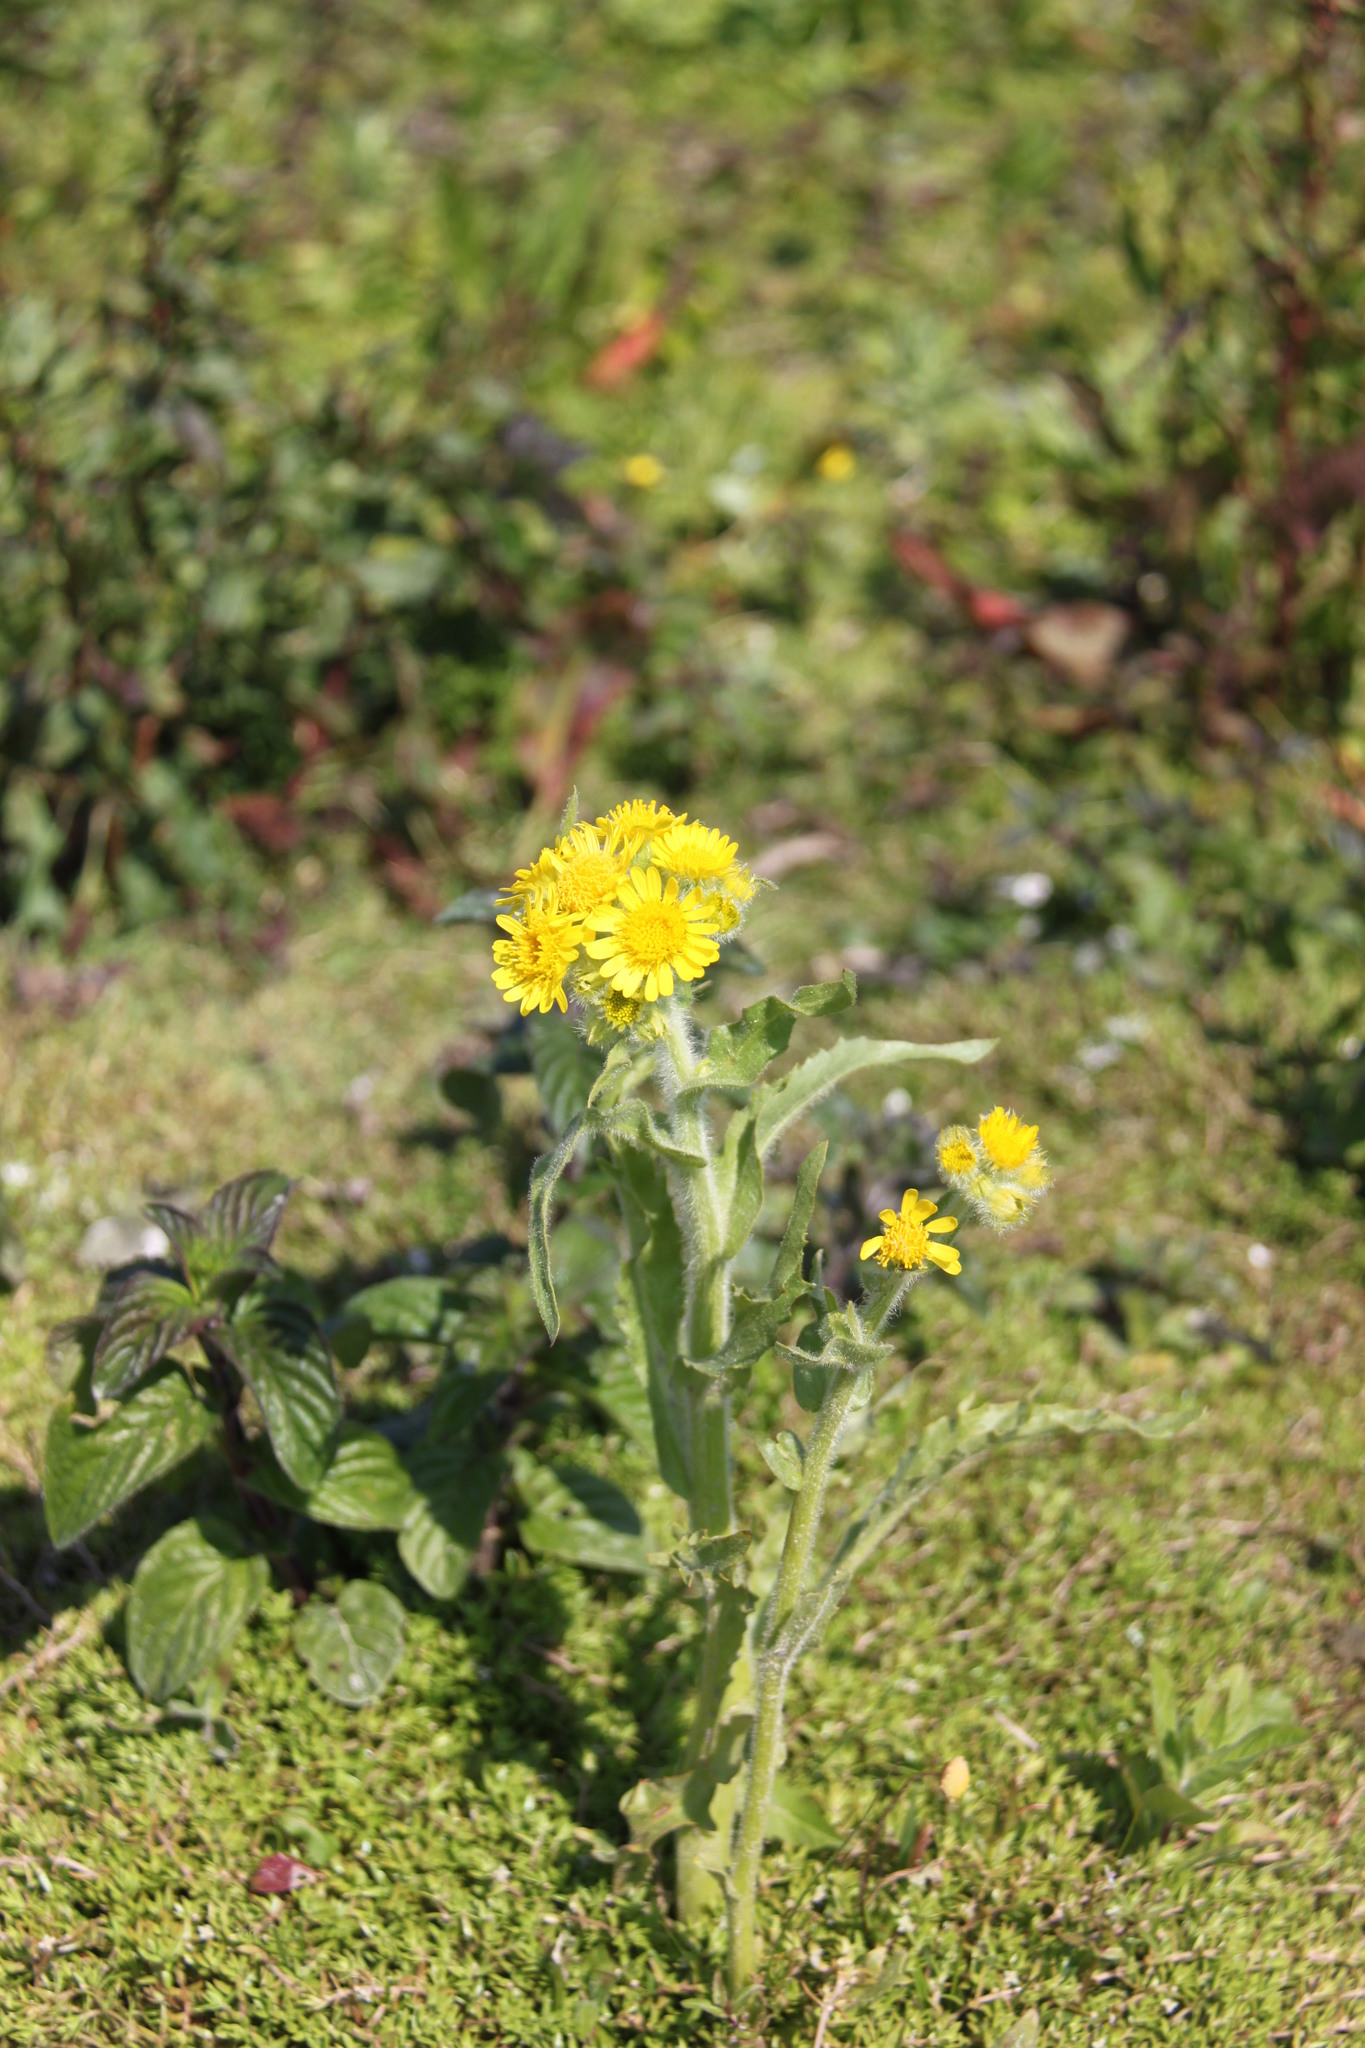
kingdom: Plantae
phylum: Tracheophyta
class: Magnoliopsida
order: Asterales
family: Asteraceae
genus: Tephroseris
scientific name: Tephroseris palustris
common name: Marsh fleawort
